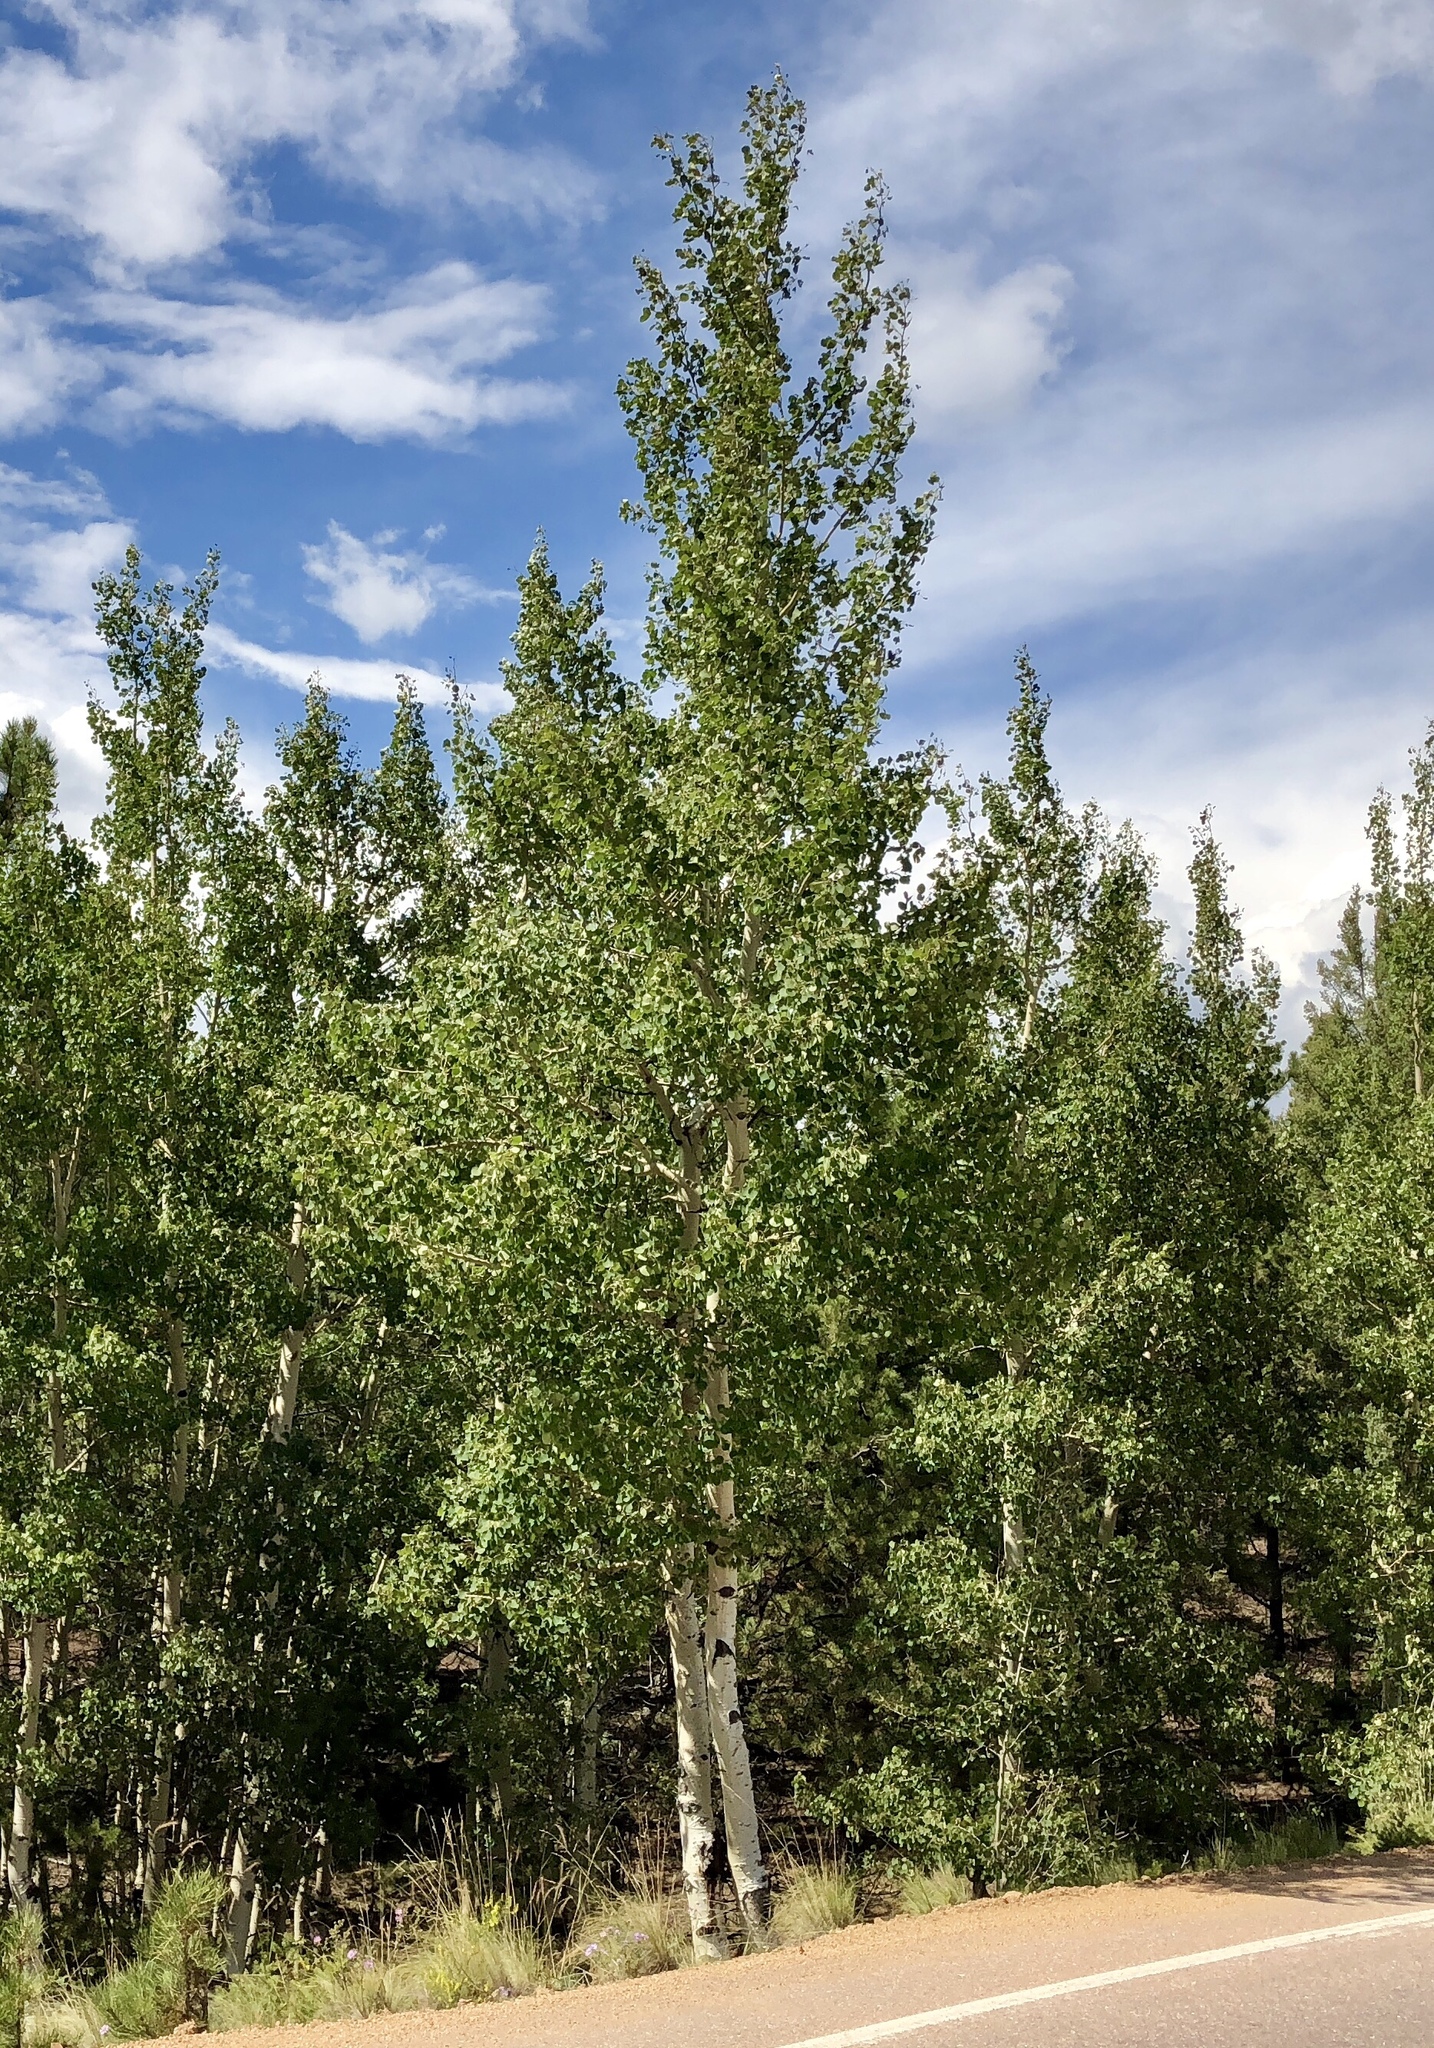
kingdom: Plantae
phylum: Tracheophyta
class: Magnoliopsida
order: Malpighiales
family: Salicaceae
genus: Populus
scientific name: Populus tremuloides
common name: Quaking aspen
